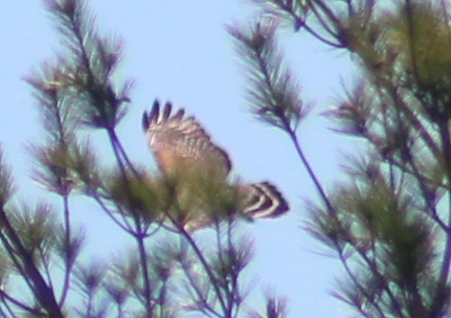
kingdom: Animalia
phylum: Chordata
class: Aves
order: Accipitriformes
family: Accipitridae
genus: Buteo
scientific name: Buteo lineatus
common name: Red-shouldered hawk
